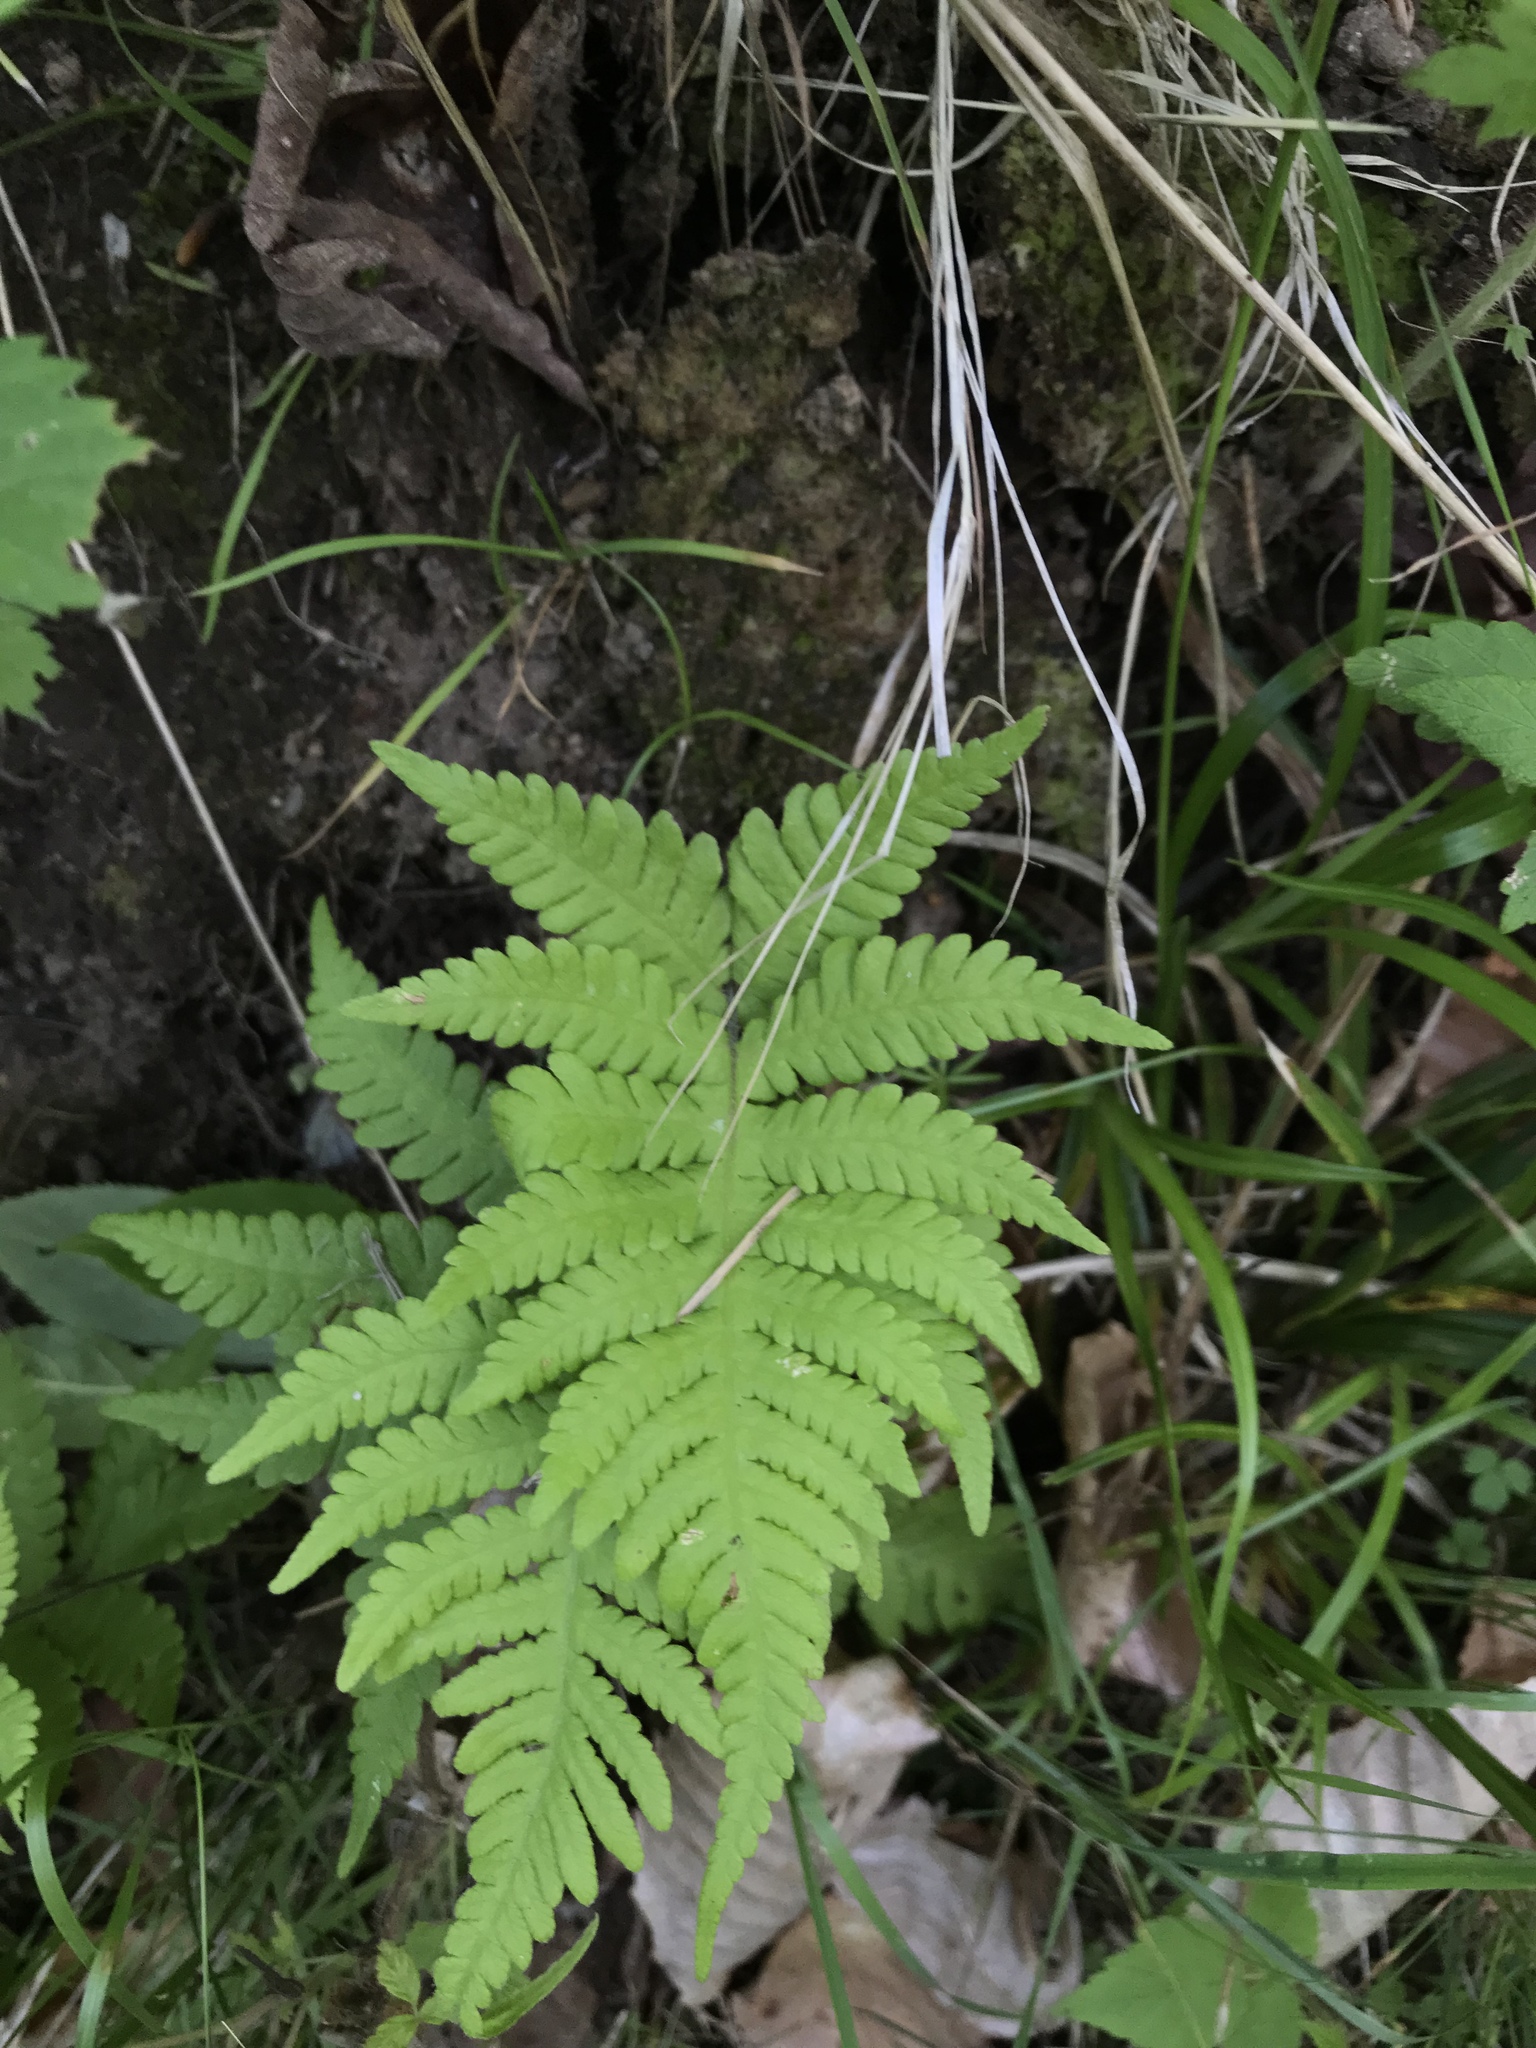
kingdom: Plantae
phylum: Tracheophyta
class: Polypodiopsida
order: Polypodiales
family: Thelypteridaceae
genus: Phegopteris
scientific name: Phegopteris connectilis
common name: Beech fern
